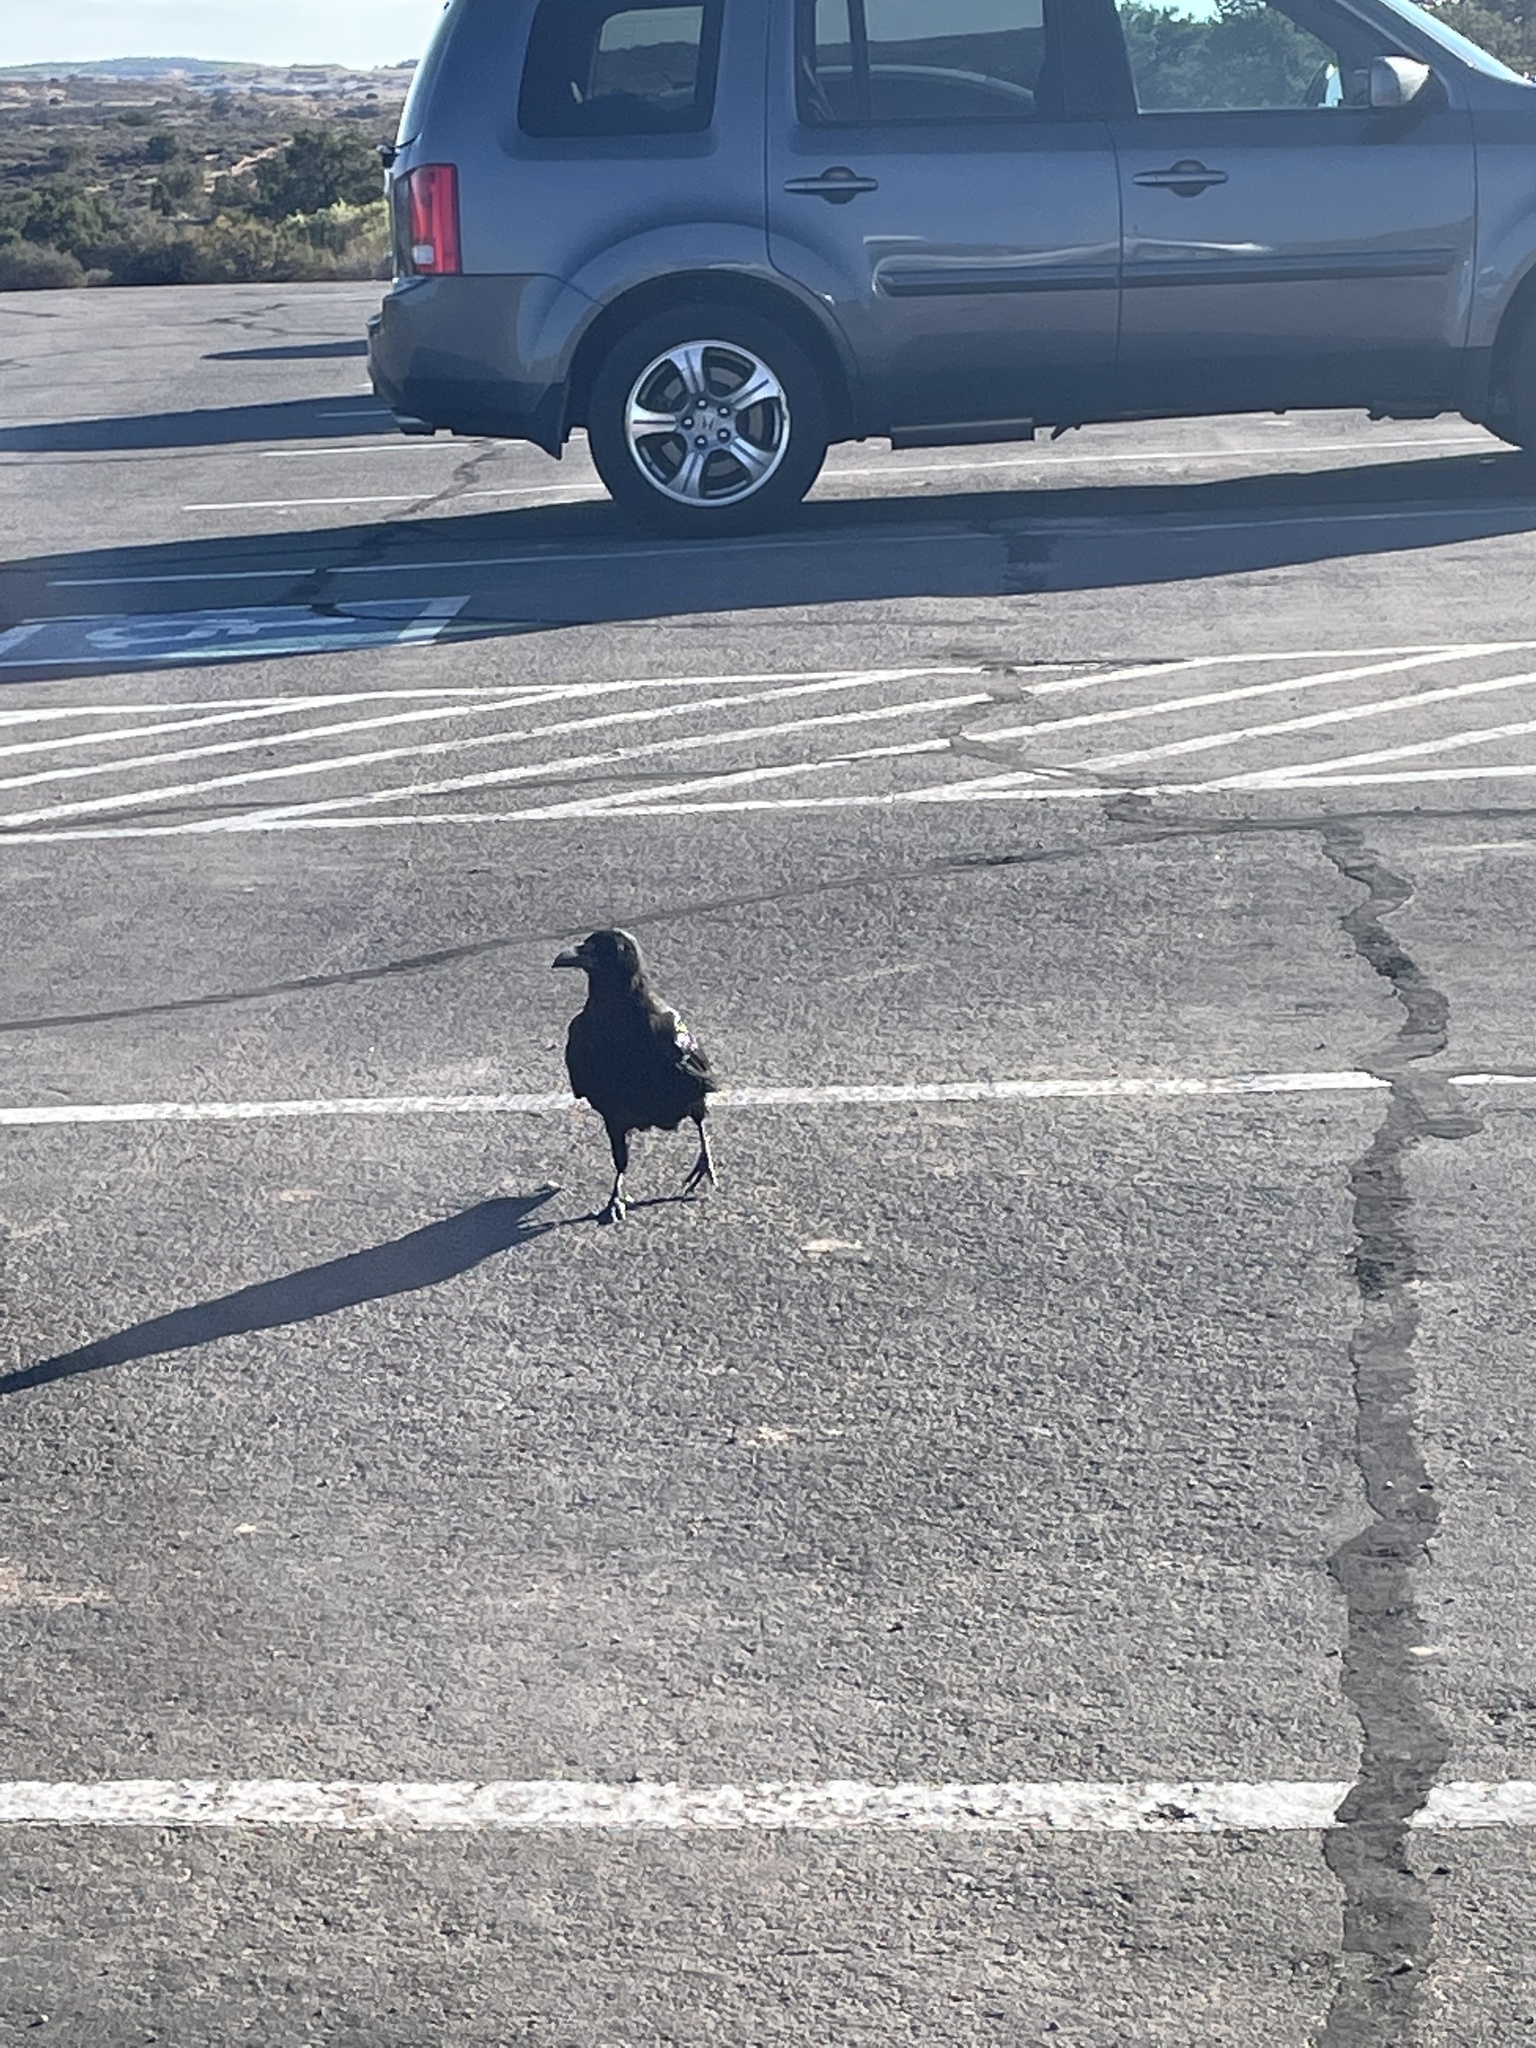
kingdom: Animalia
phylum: Chordata
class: Aves
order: Passeriformes
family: Corvidae
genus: Corvus
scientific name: Corvus corax
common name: Common raven
